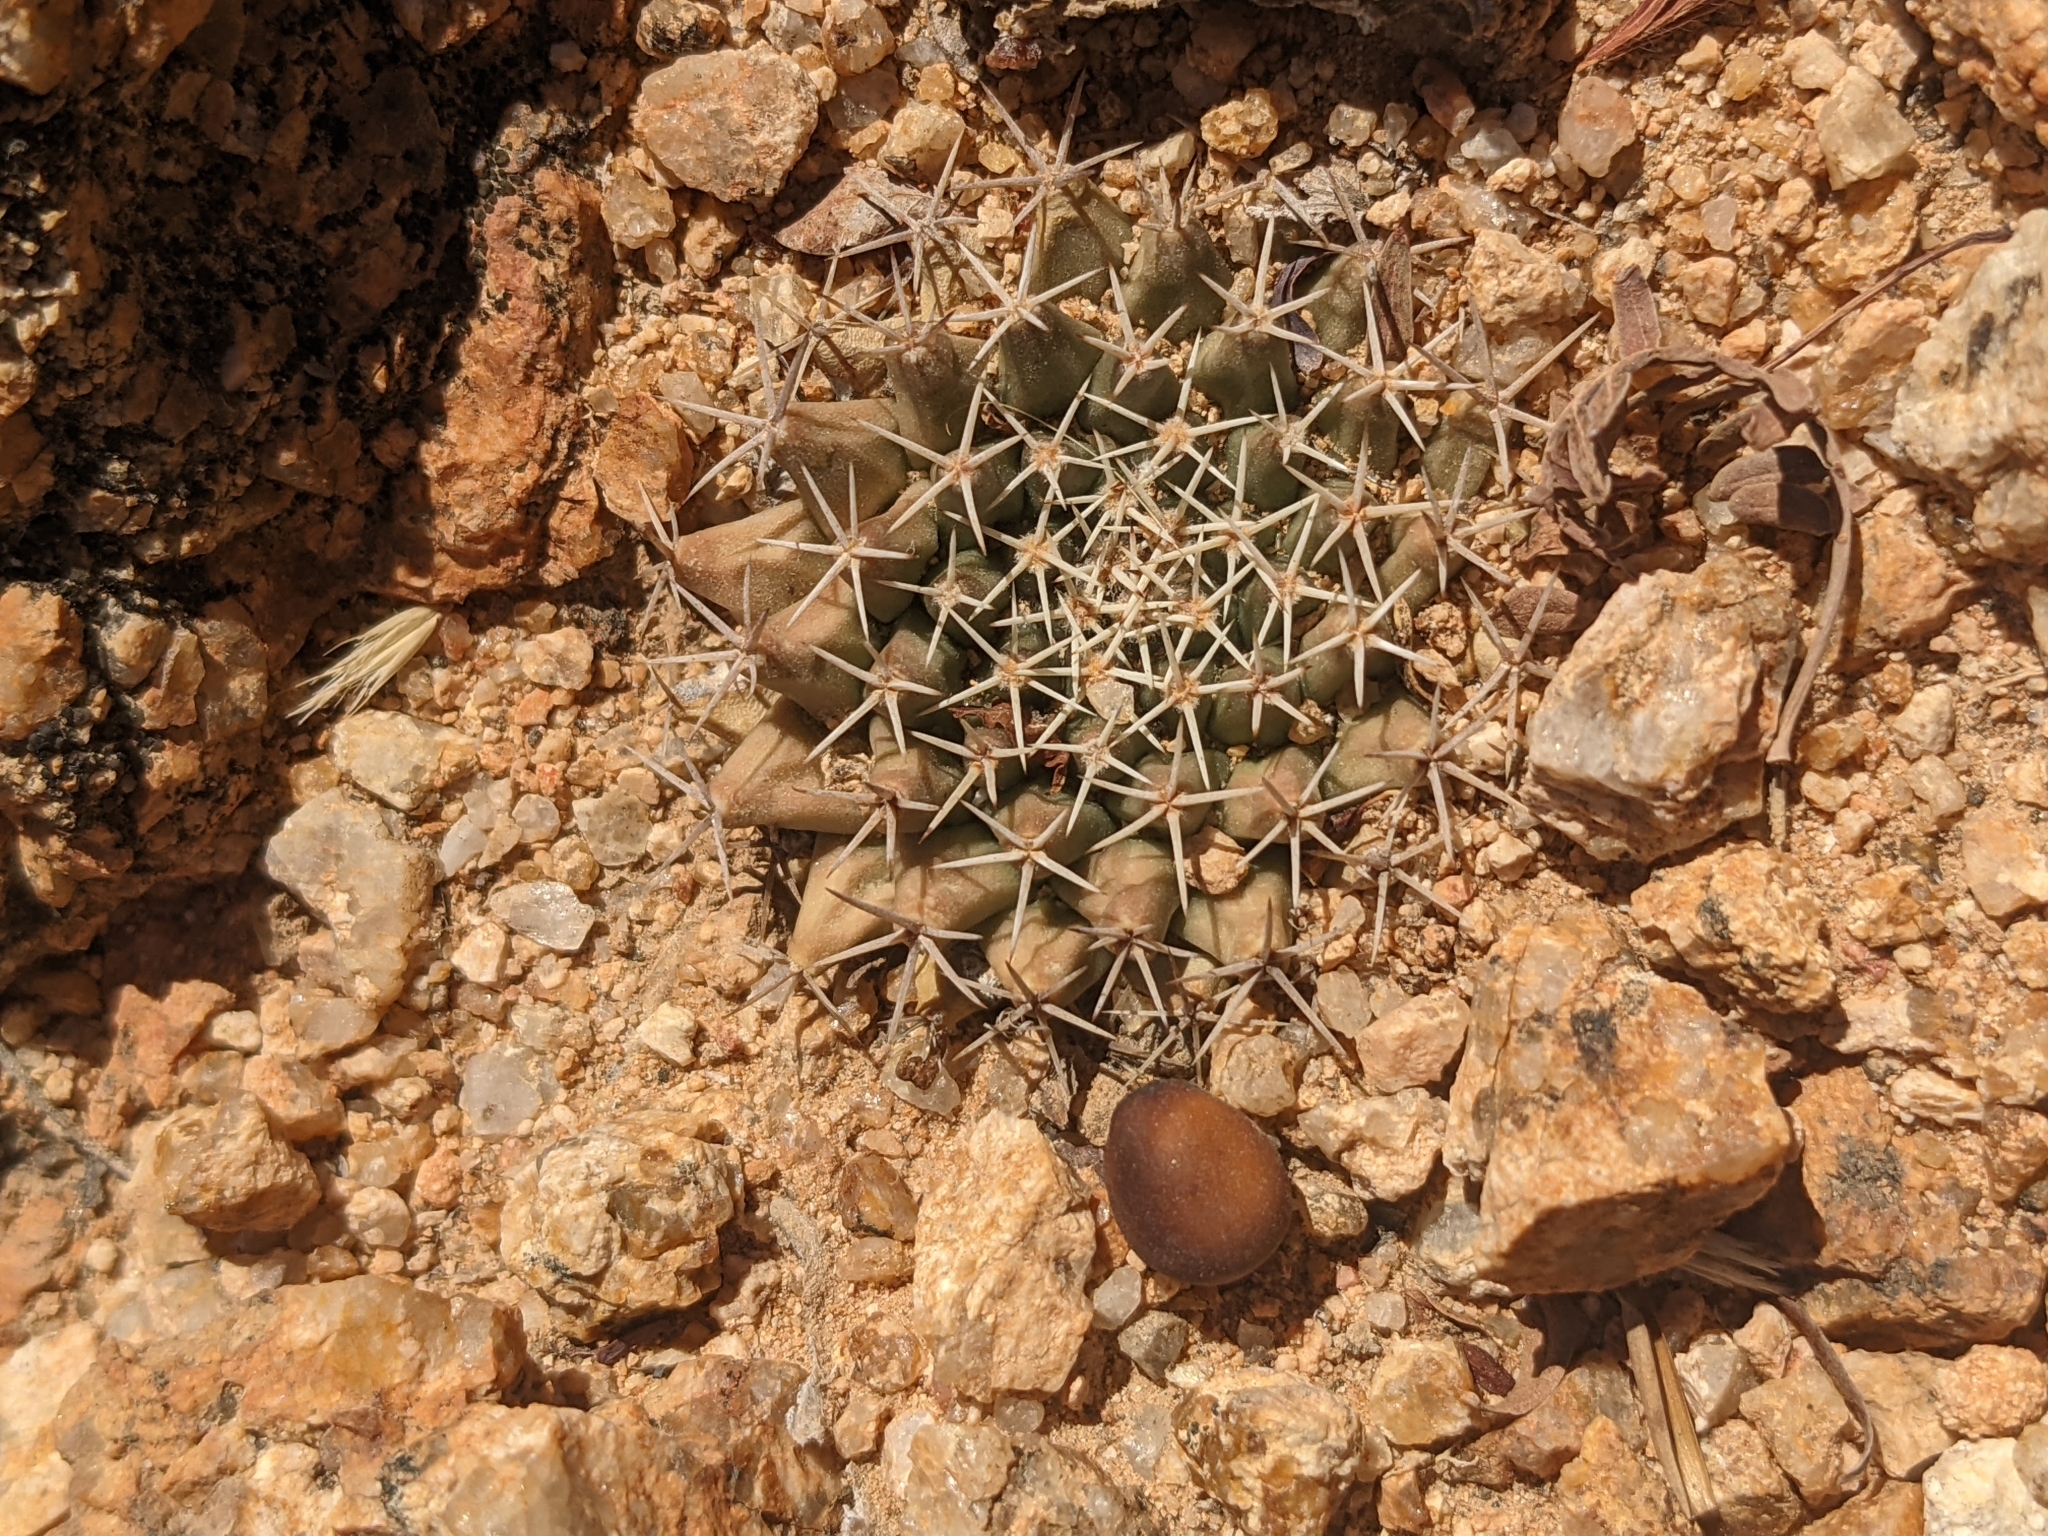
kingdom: Plantae
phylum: Tracheophyta
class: Magnoliopsida
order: Caryophyllales
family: Cactaceae
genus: Mammillaria
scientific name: Mammillaria peninsularis
